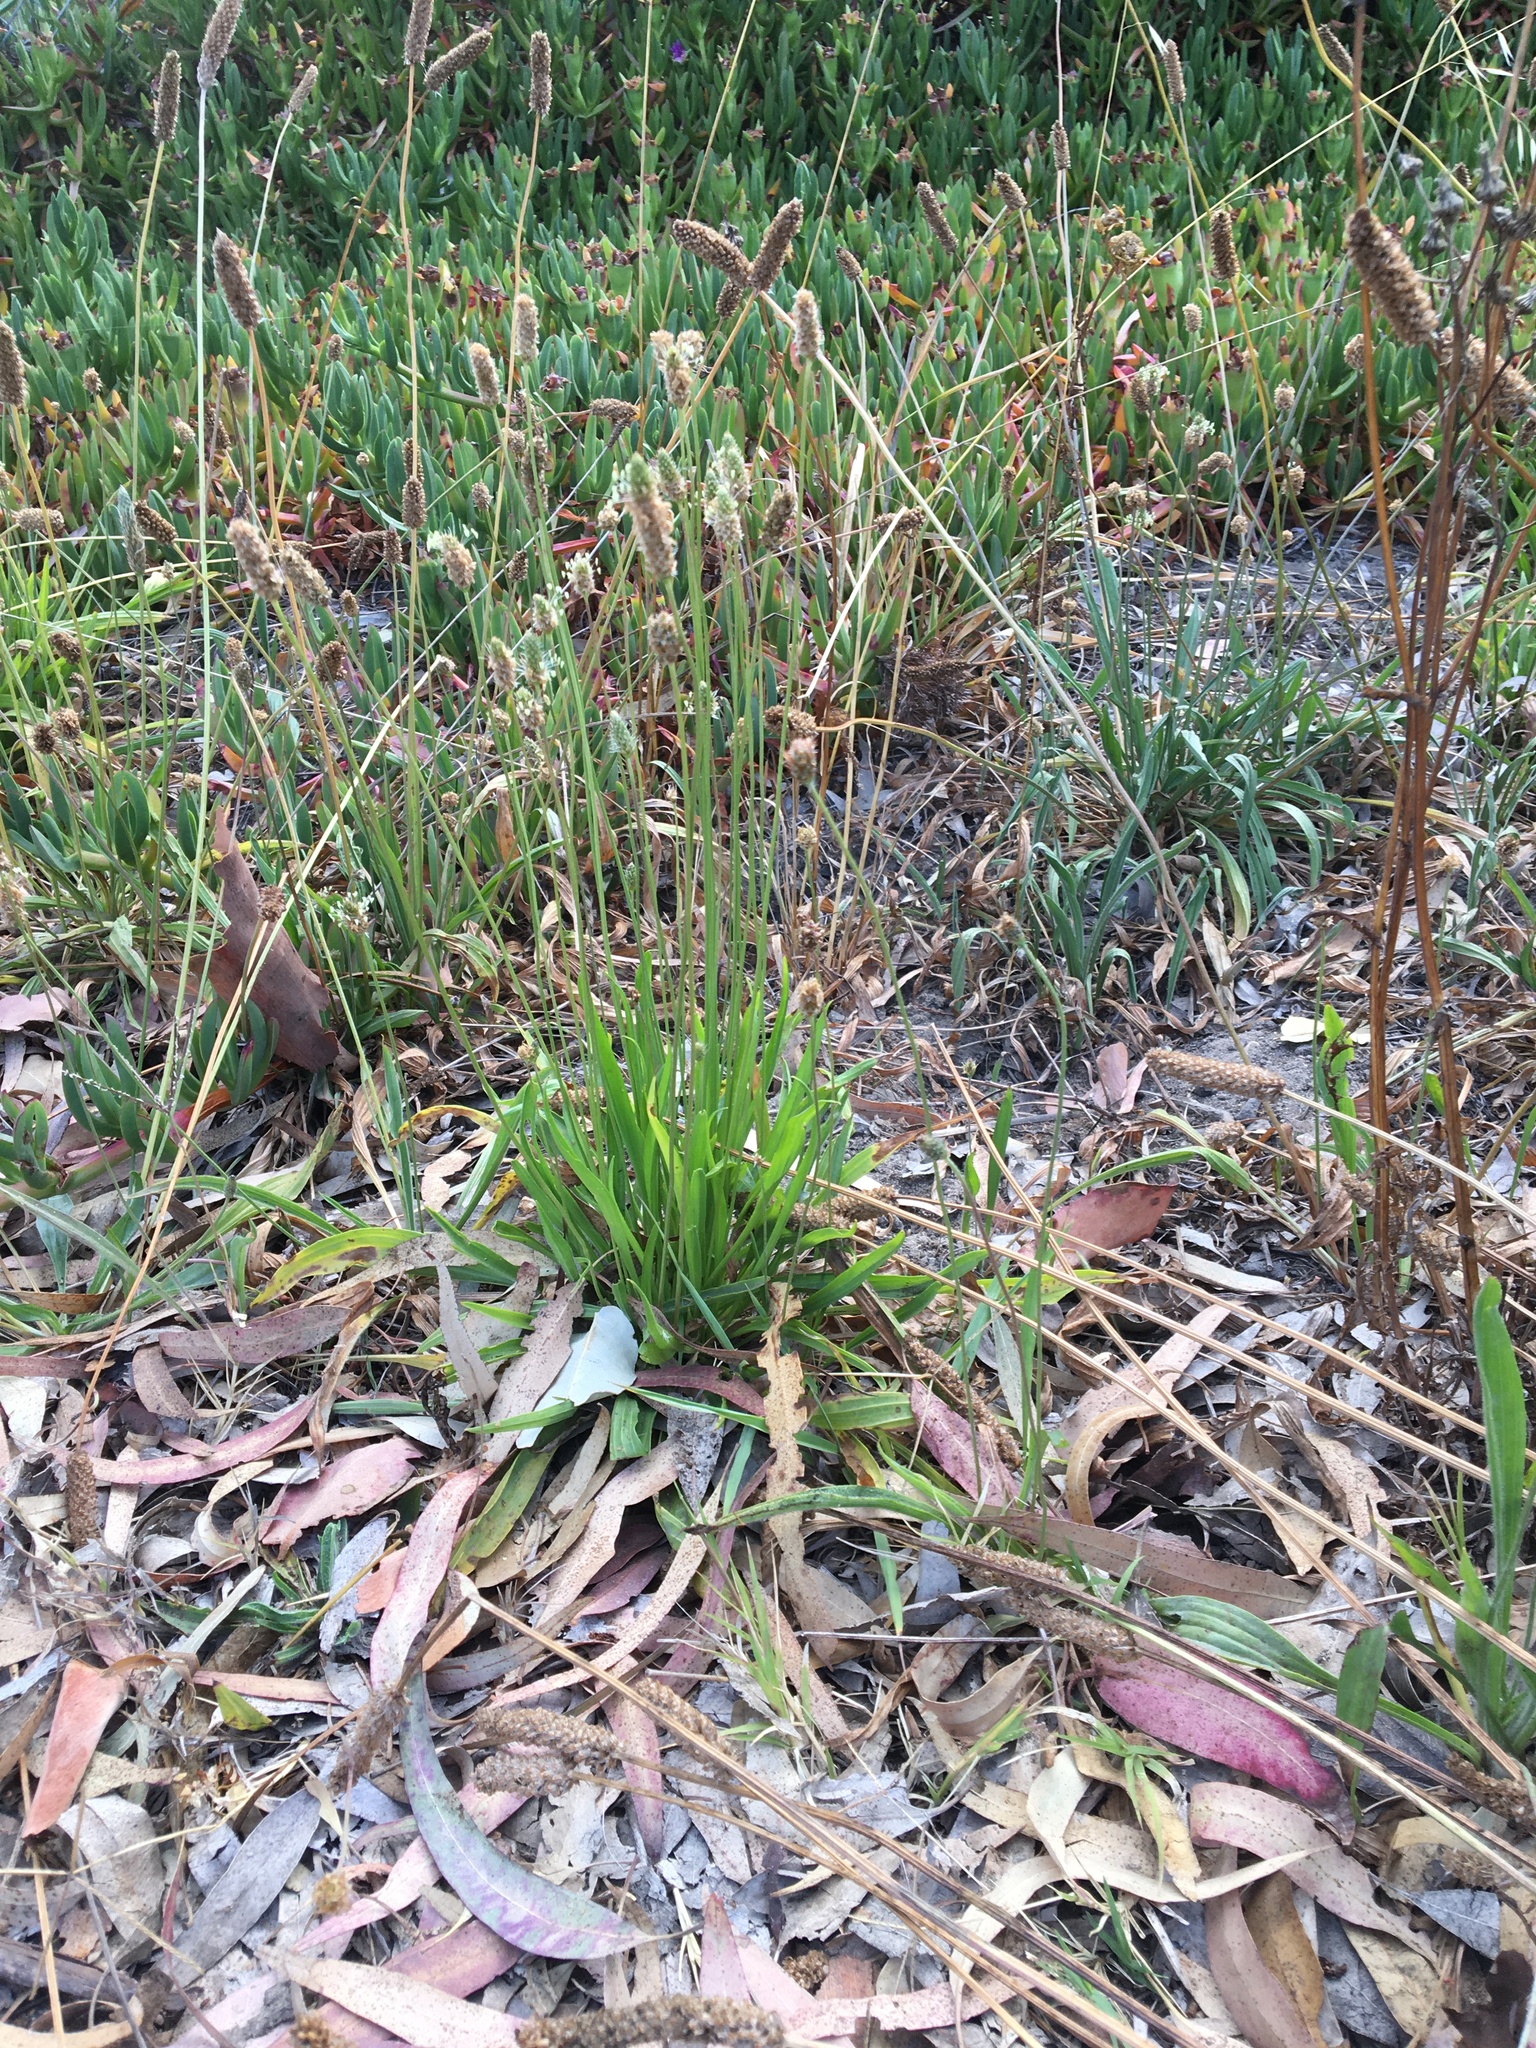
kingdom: Plantae
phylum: Tracheophyta
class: Magnoliopsida
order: Lamiales
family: Plantaginaceae
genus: Plantago
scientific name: Plantago lanceolata
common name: Ribwort plantain
